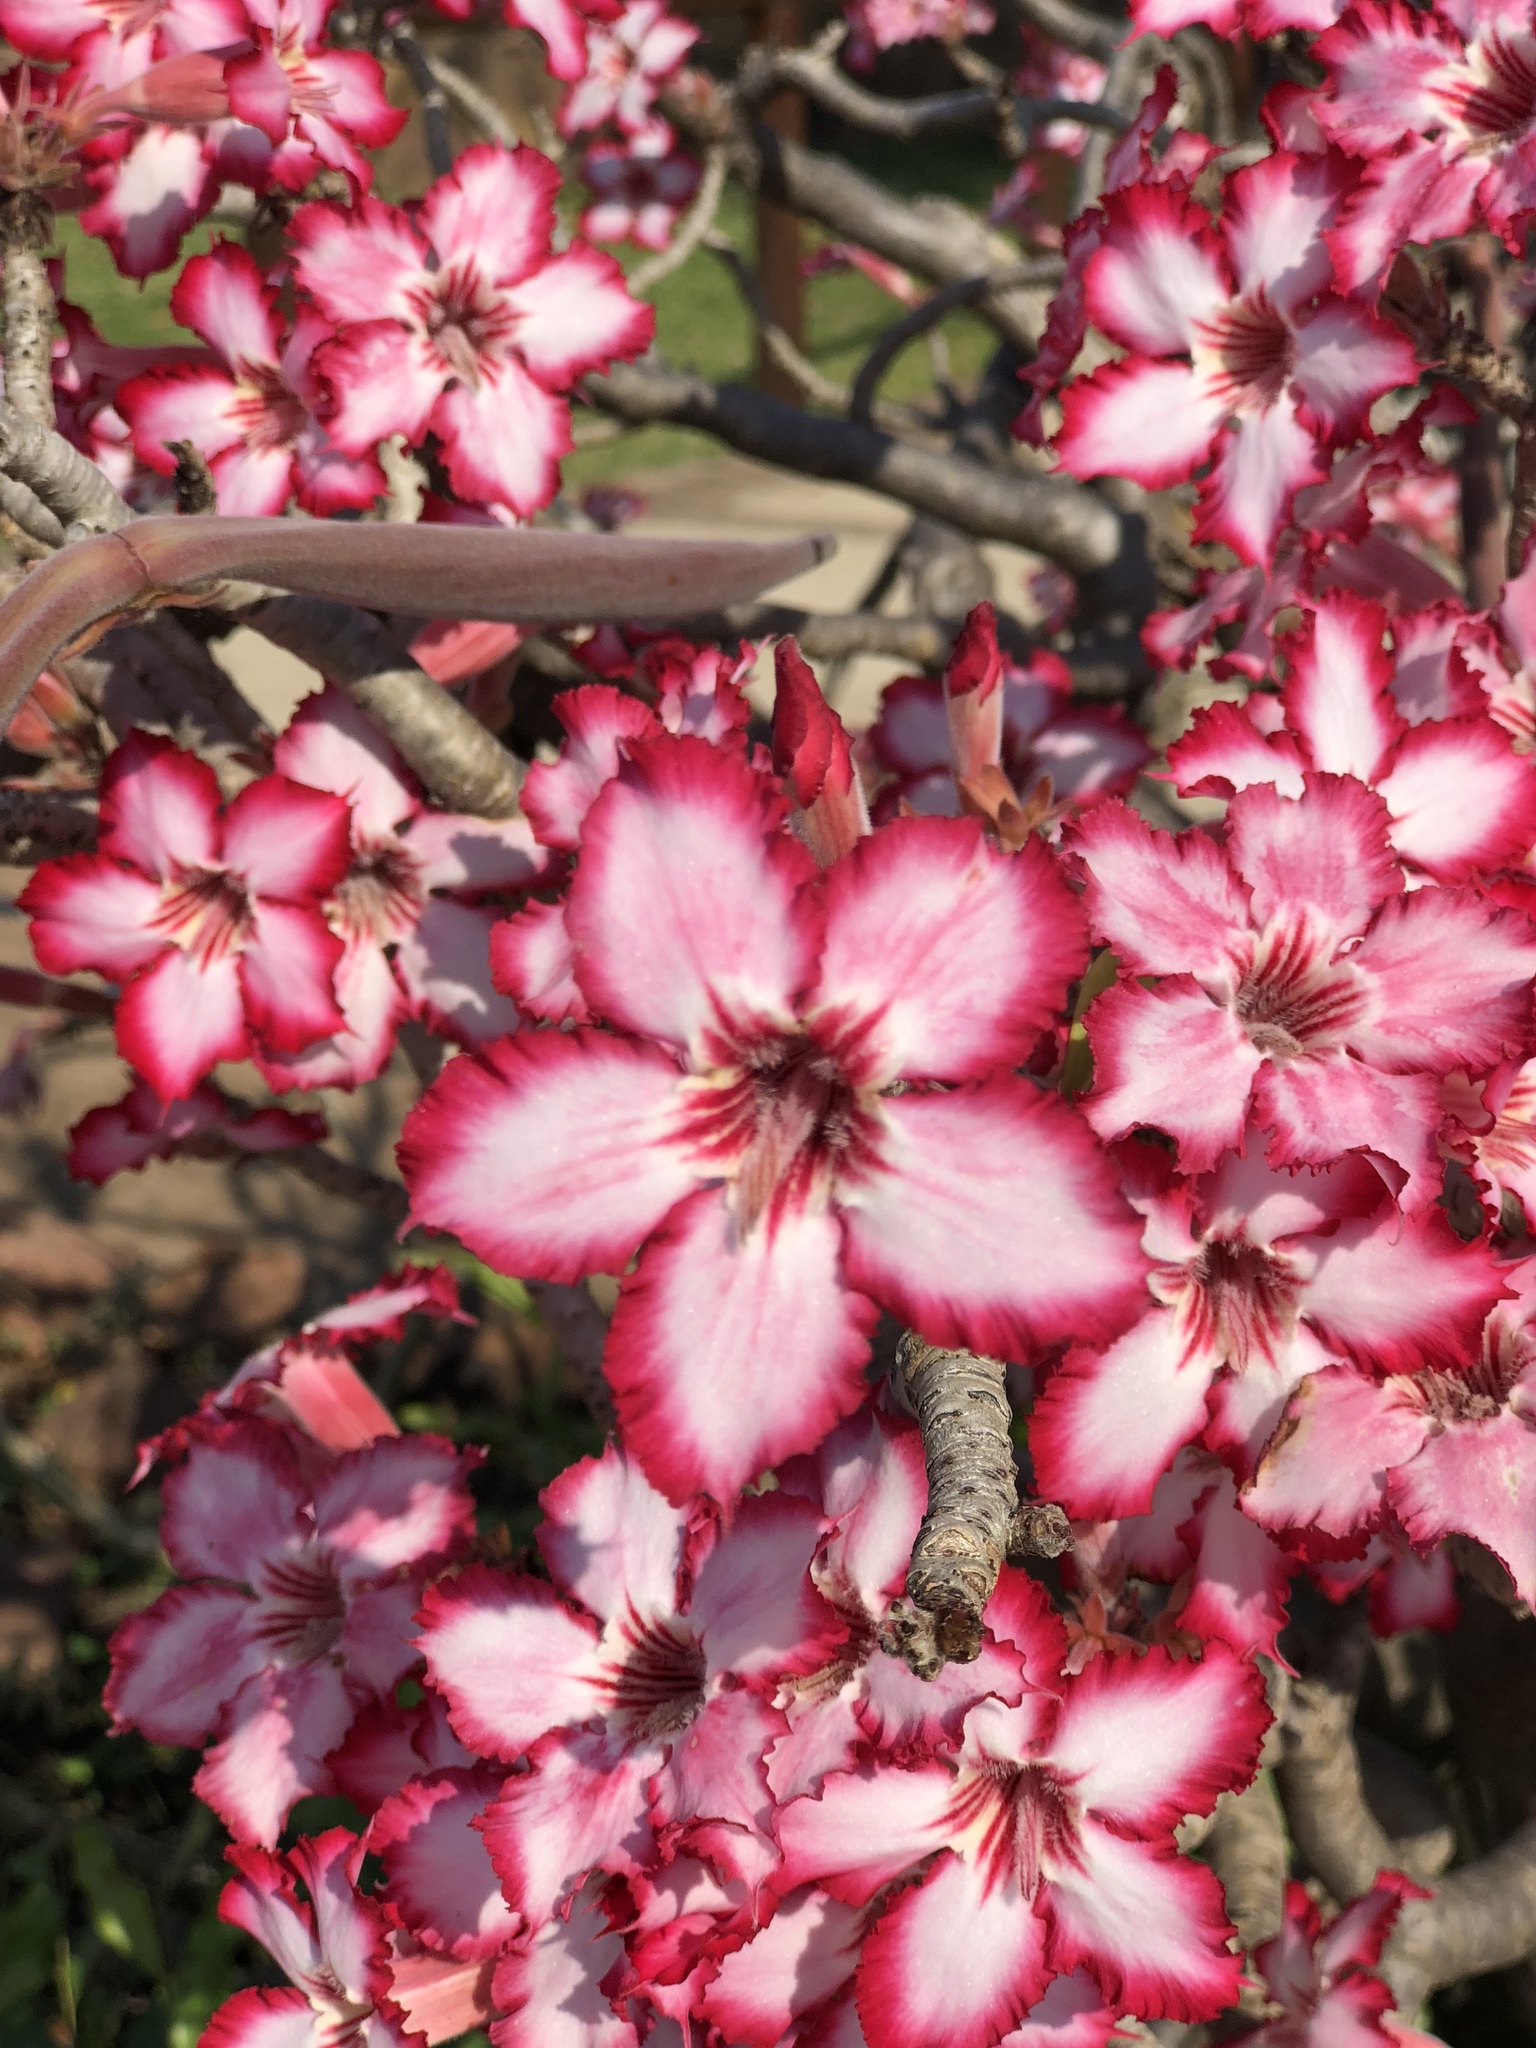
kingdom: Plantae
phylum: Tracheophyta
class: Magnoliopsida
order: Gentianales
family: Apocynaceae
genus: Adenium
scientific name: Adenium obesum
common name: Desert-rose
